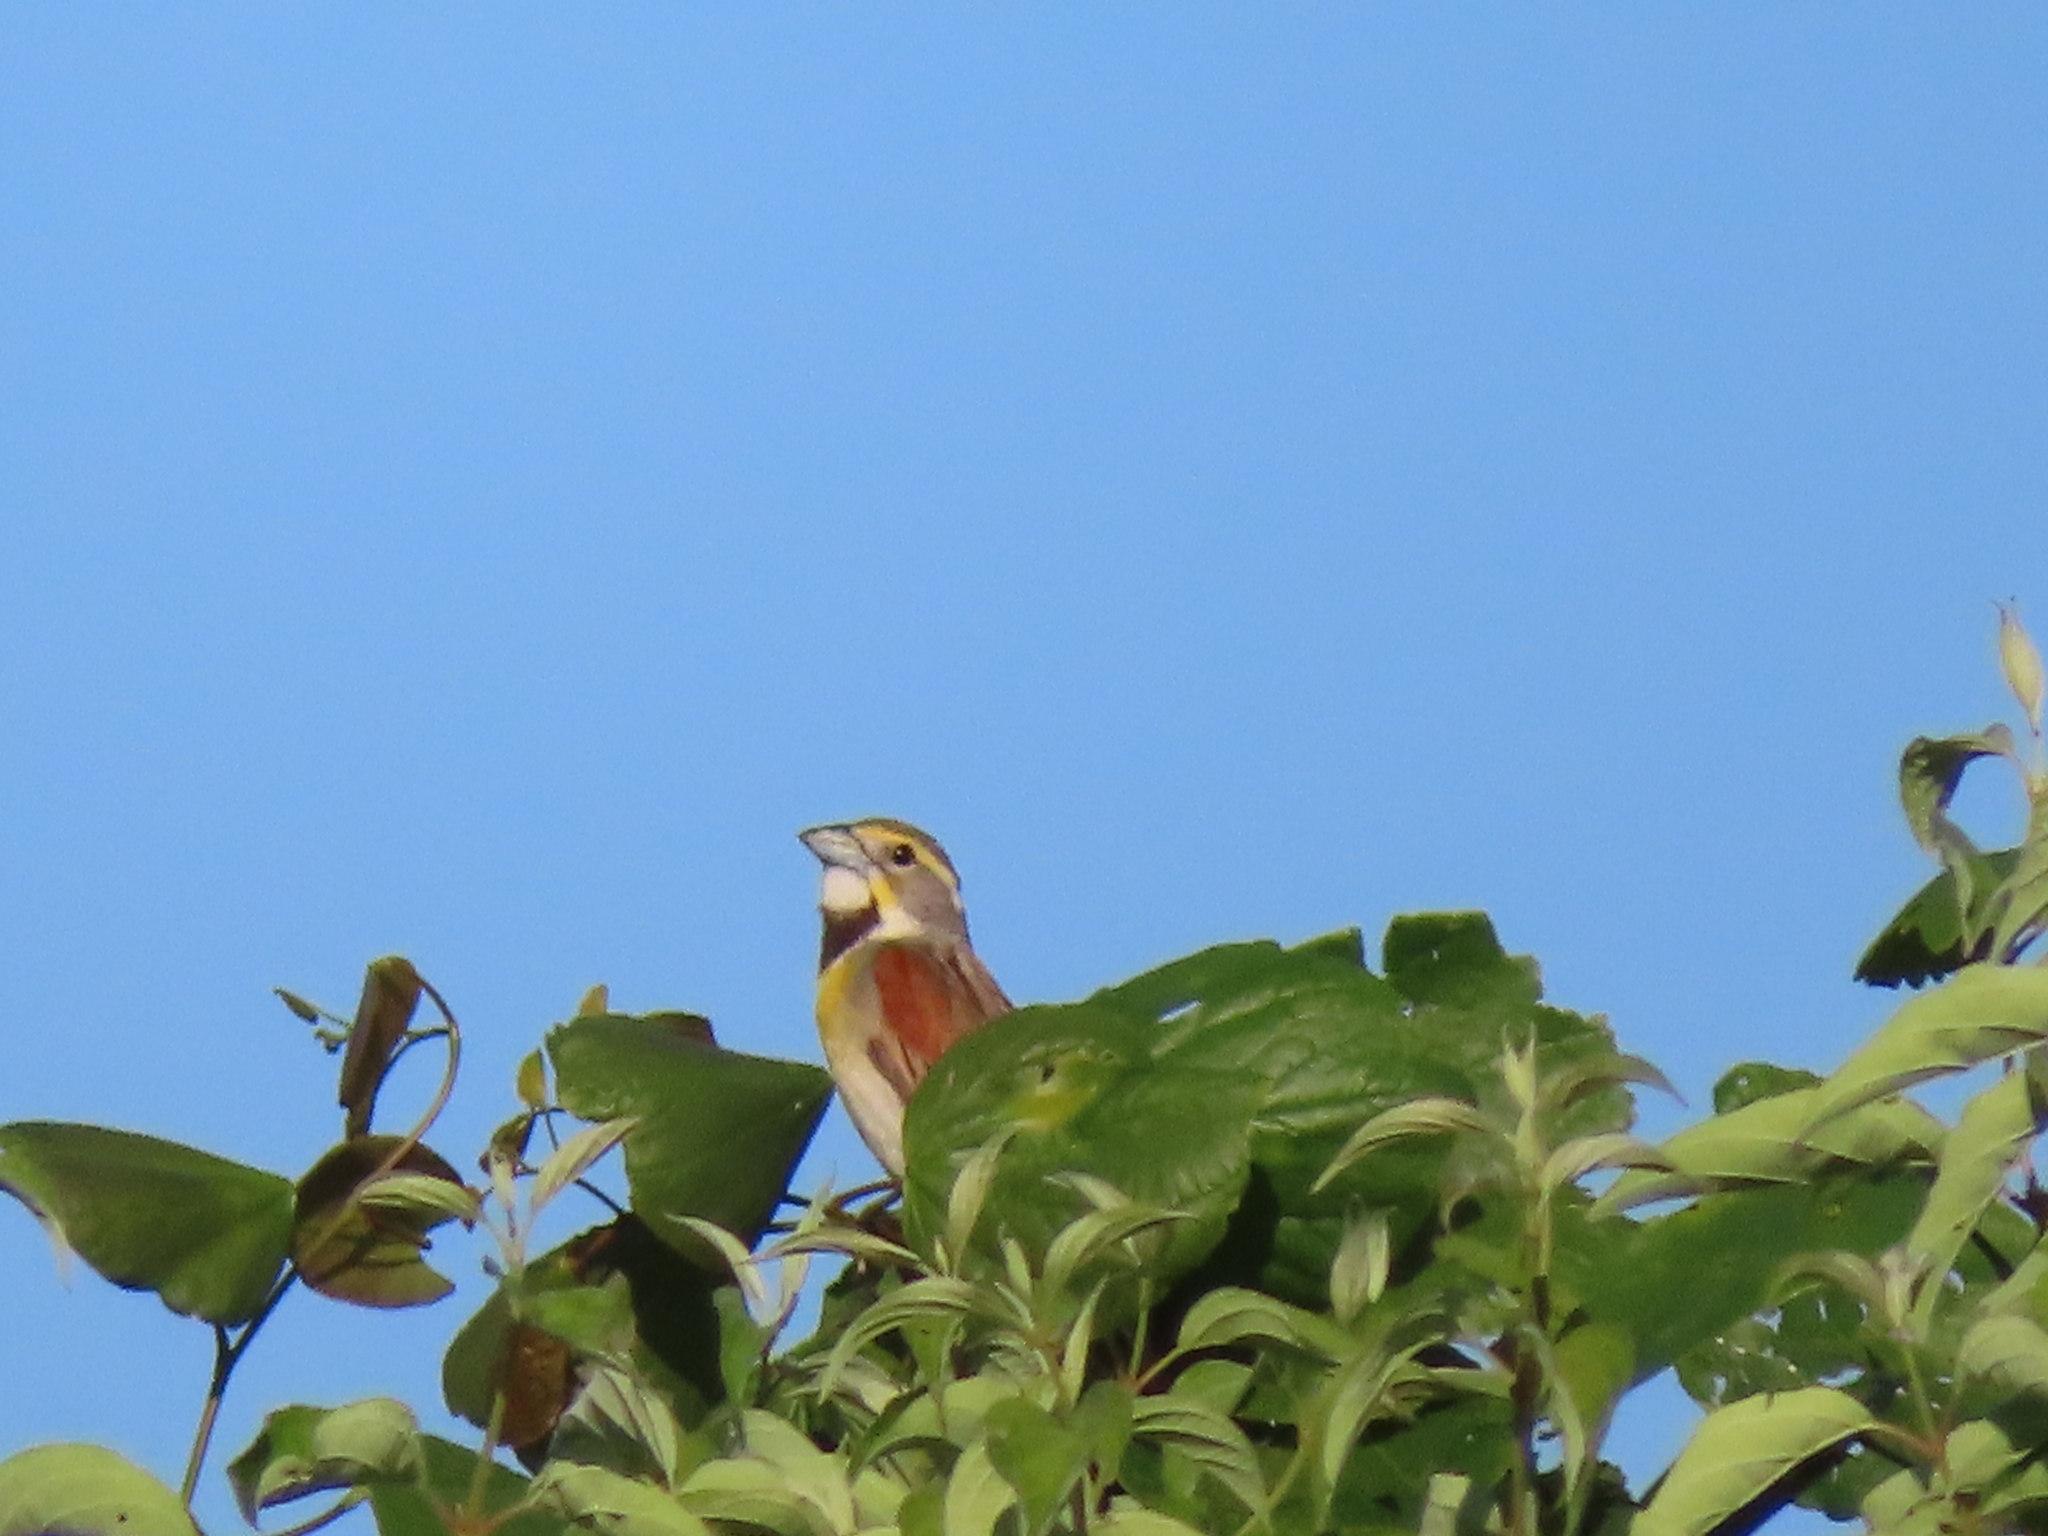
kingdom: Animalia
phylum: Chordata
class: Aves
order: Passeriformes
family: Cardinalidae
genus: Spiza
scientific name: Spiza americana
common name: Dickcissel
